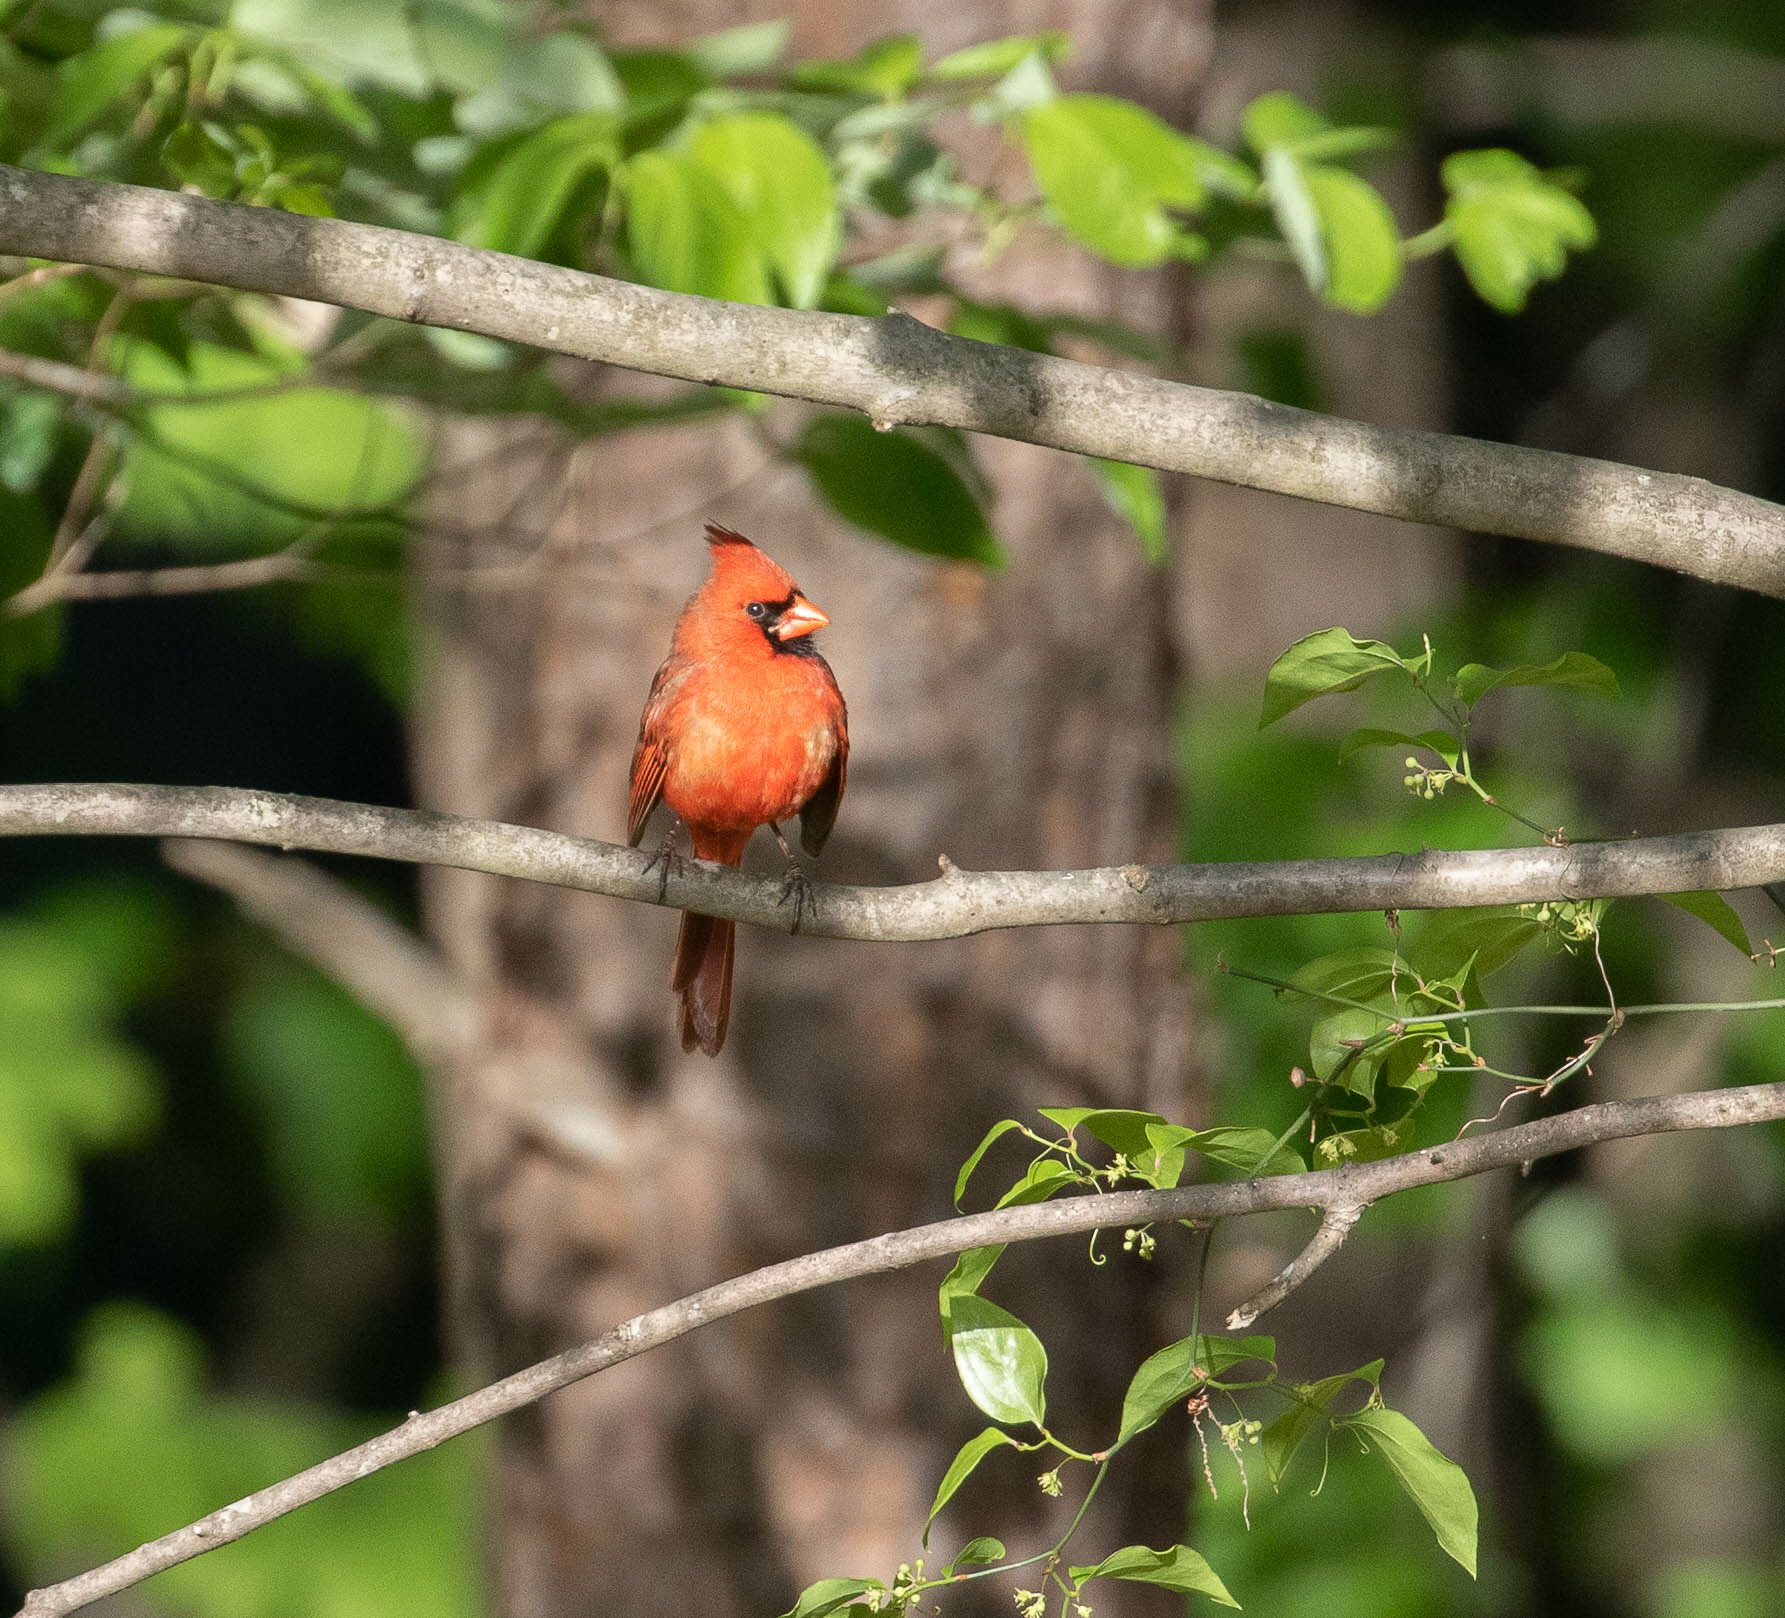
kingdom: Animalia
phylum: Chordata
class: Aves
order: Passeriformes
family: Cardinalidae
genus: Cardinalis
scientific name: Cardinalis cardinalis
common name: Northern cardinal
